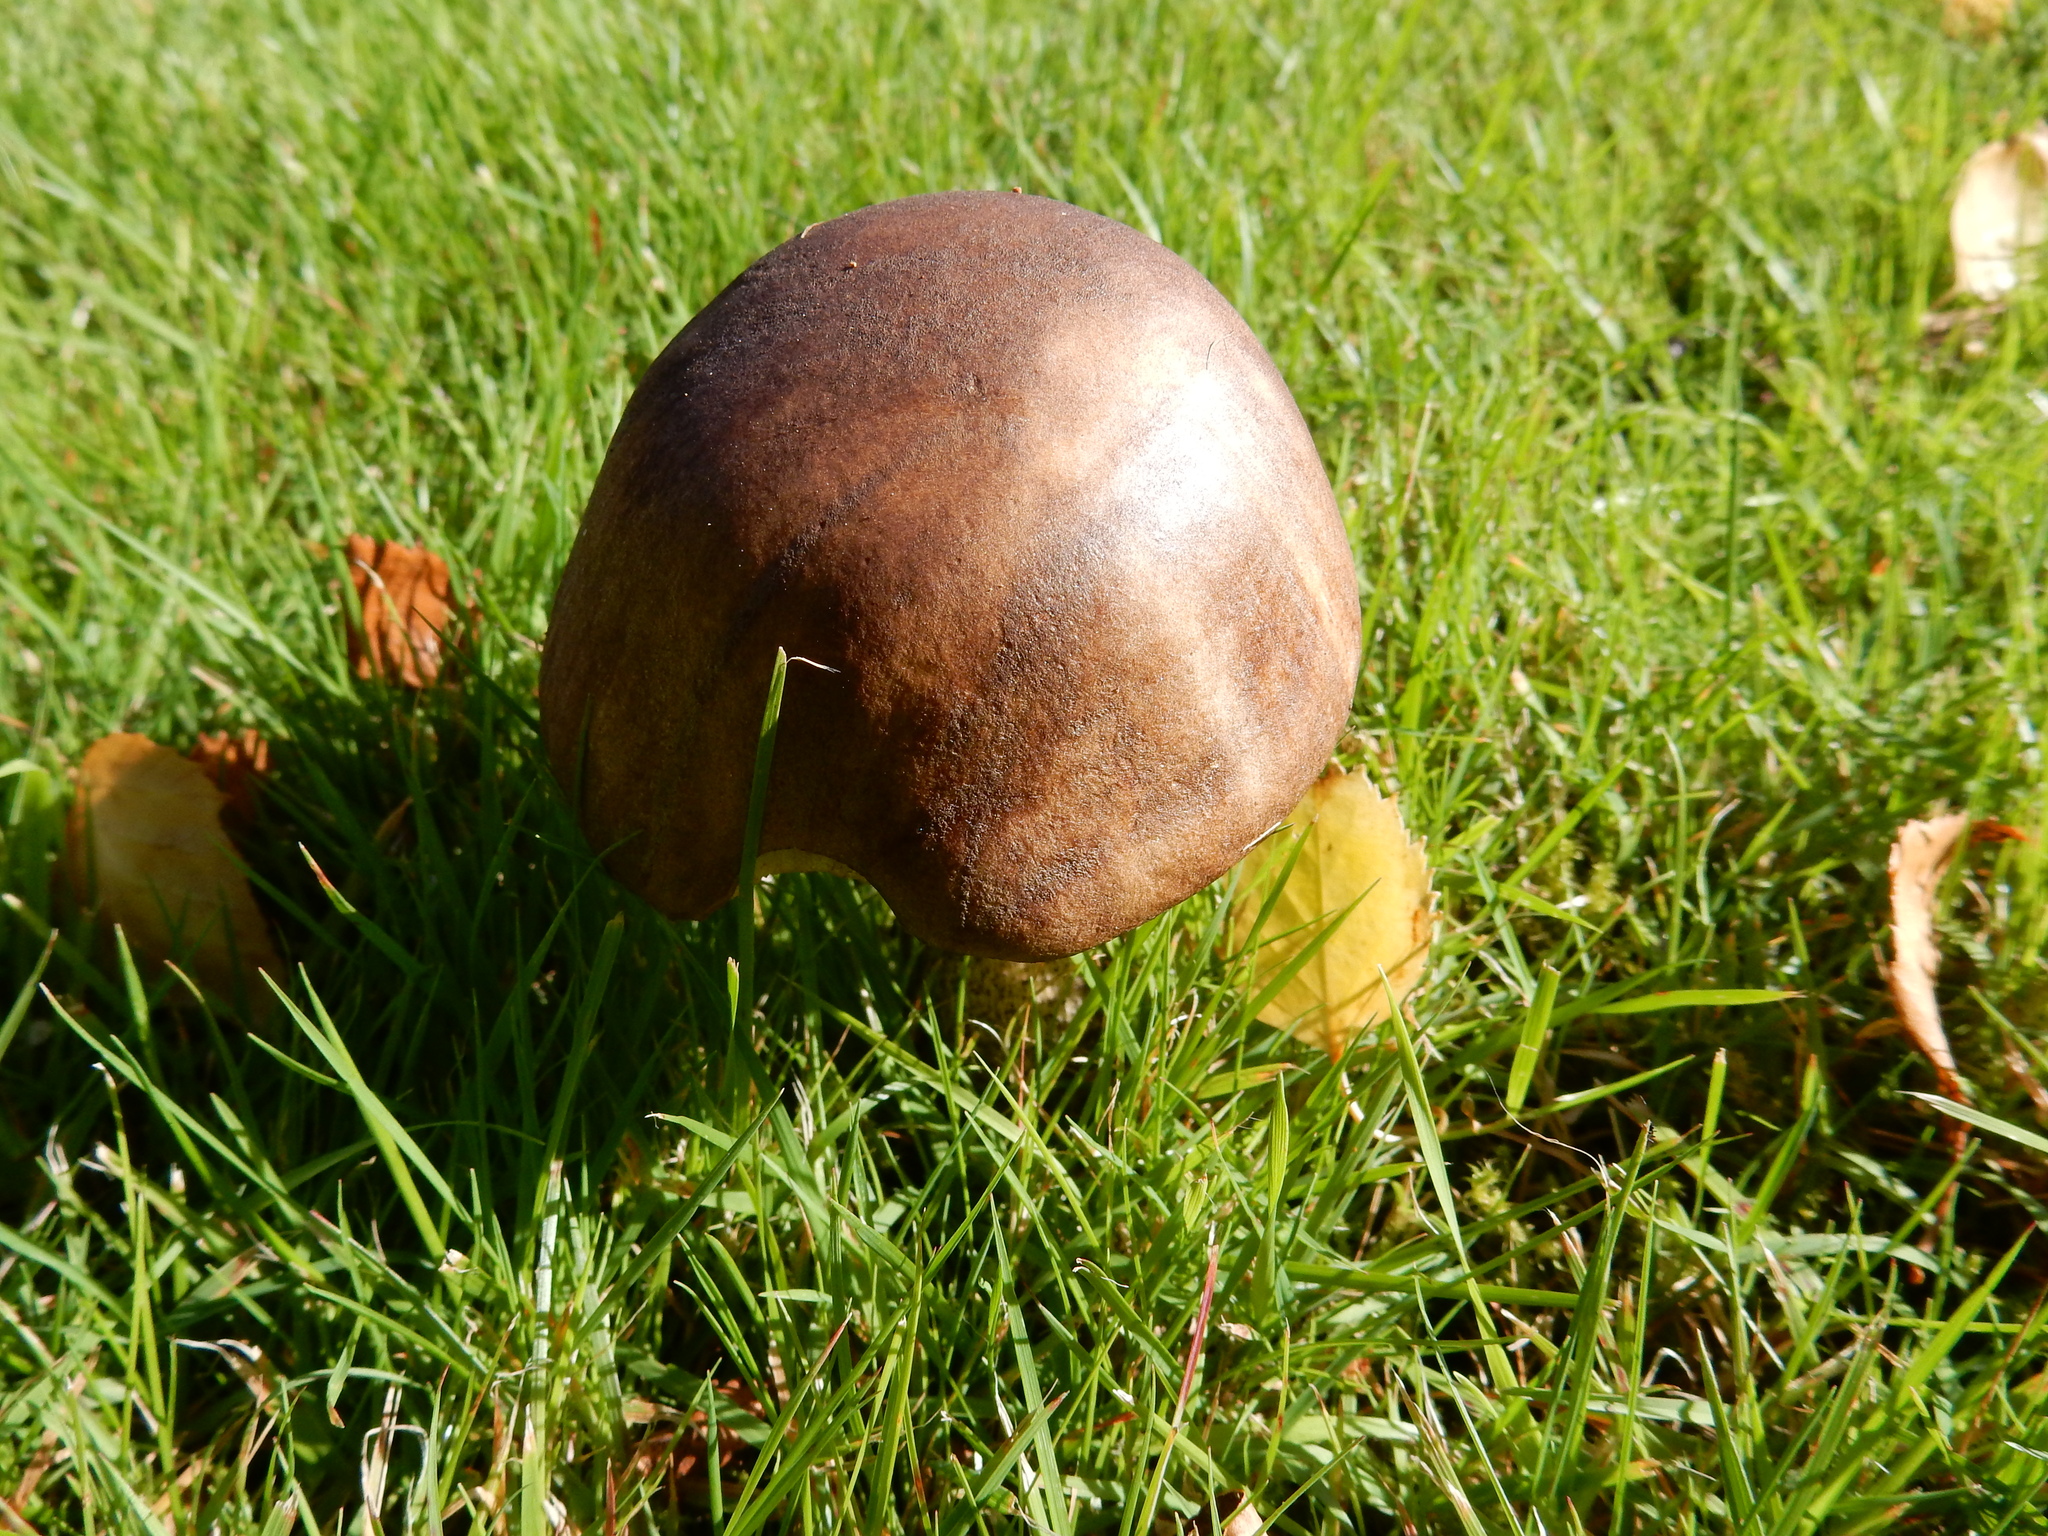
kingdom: Fungi
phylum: Basidiomycota
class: Agaricomycetes
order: Boletales
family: Boletaceae
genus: Leccinum
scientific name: Leccinum scabrum
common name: Blushing bolete
